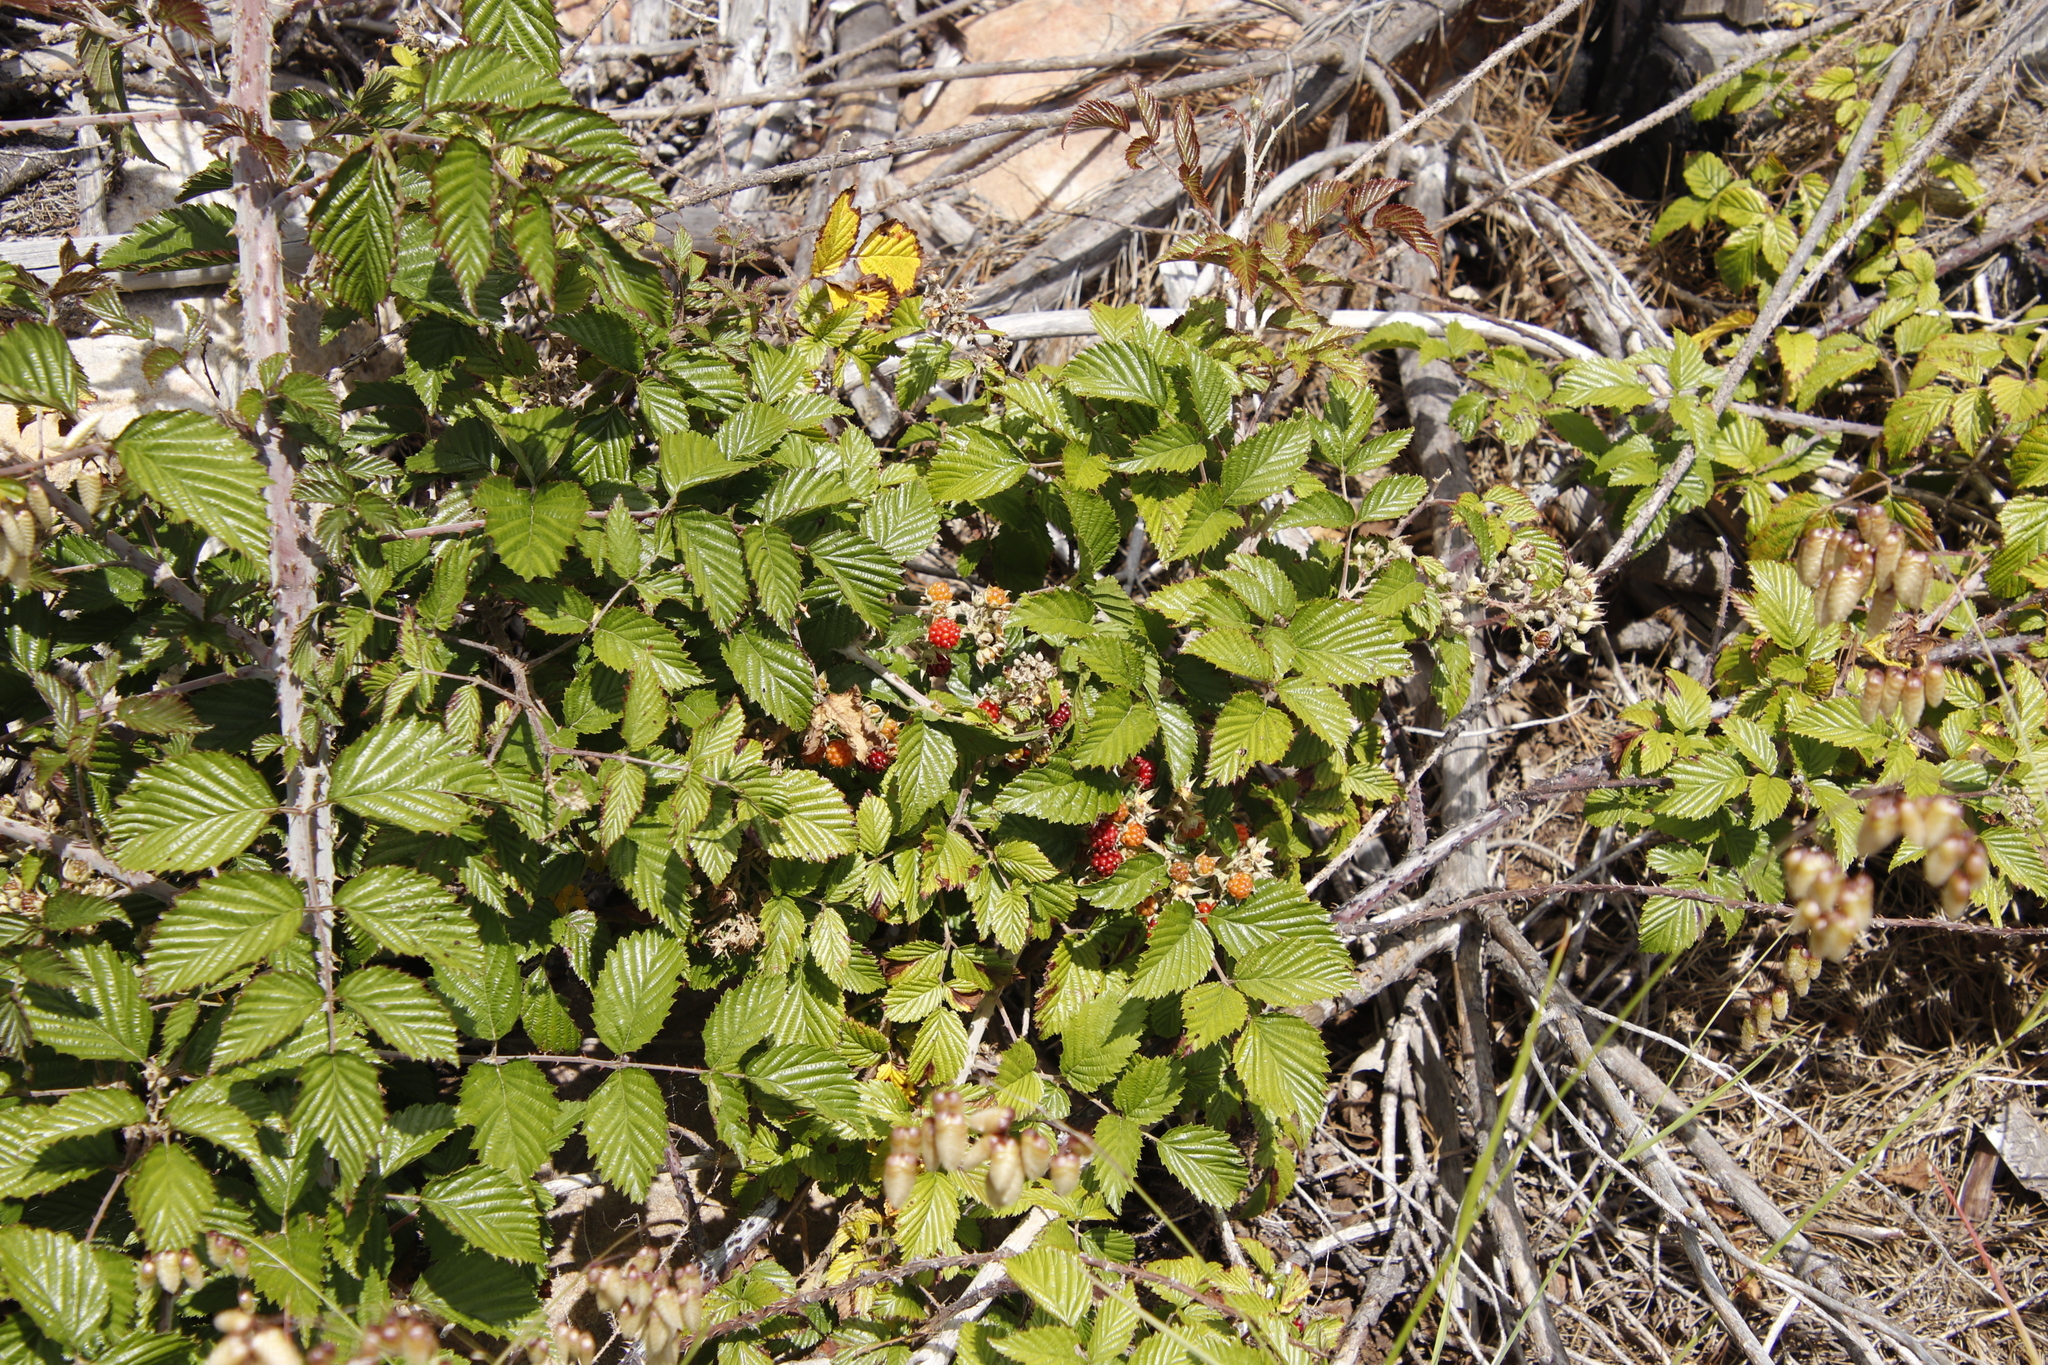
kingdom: Plantae
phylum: Tracheophyta
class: Magnoliopsida
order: Rosales
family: Rosaceae
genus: Rubus
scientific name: Rubus pinnatus
